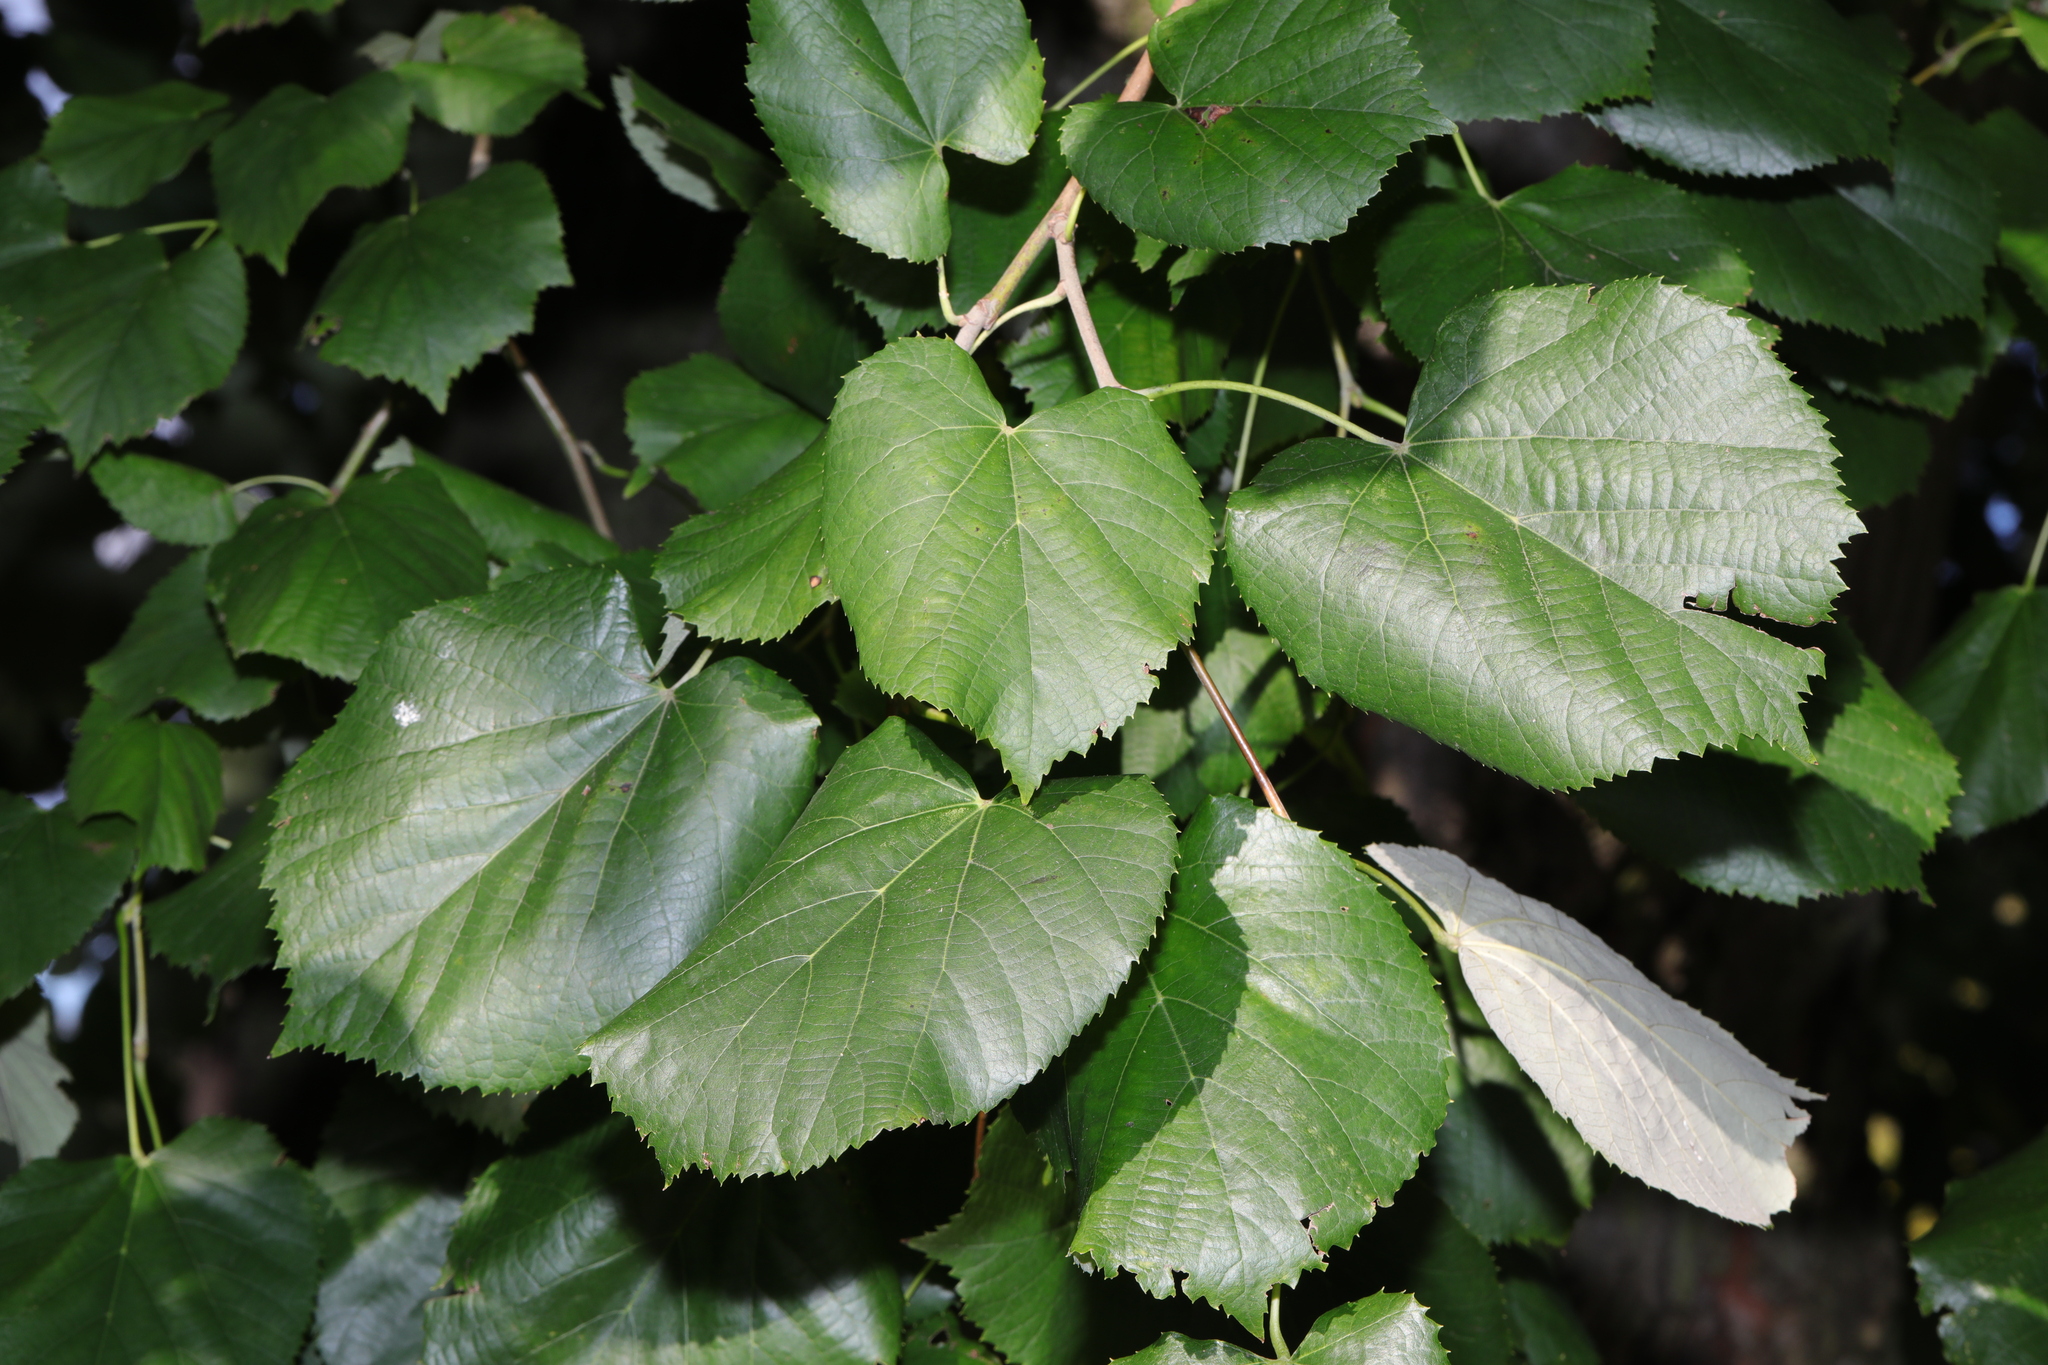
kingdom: Plantae
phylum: Tracheophyta
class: Magnoliopsida
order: Malvales
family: Malvaceae
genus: Tilia
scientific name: Tilia tomentosa
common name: Silver lime
